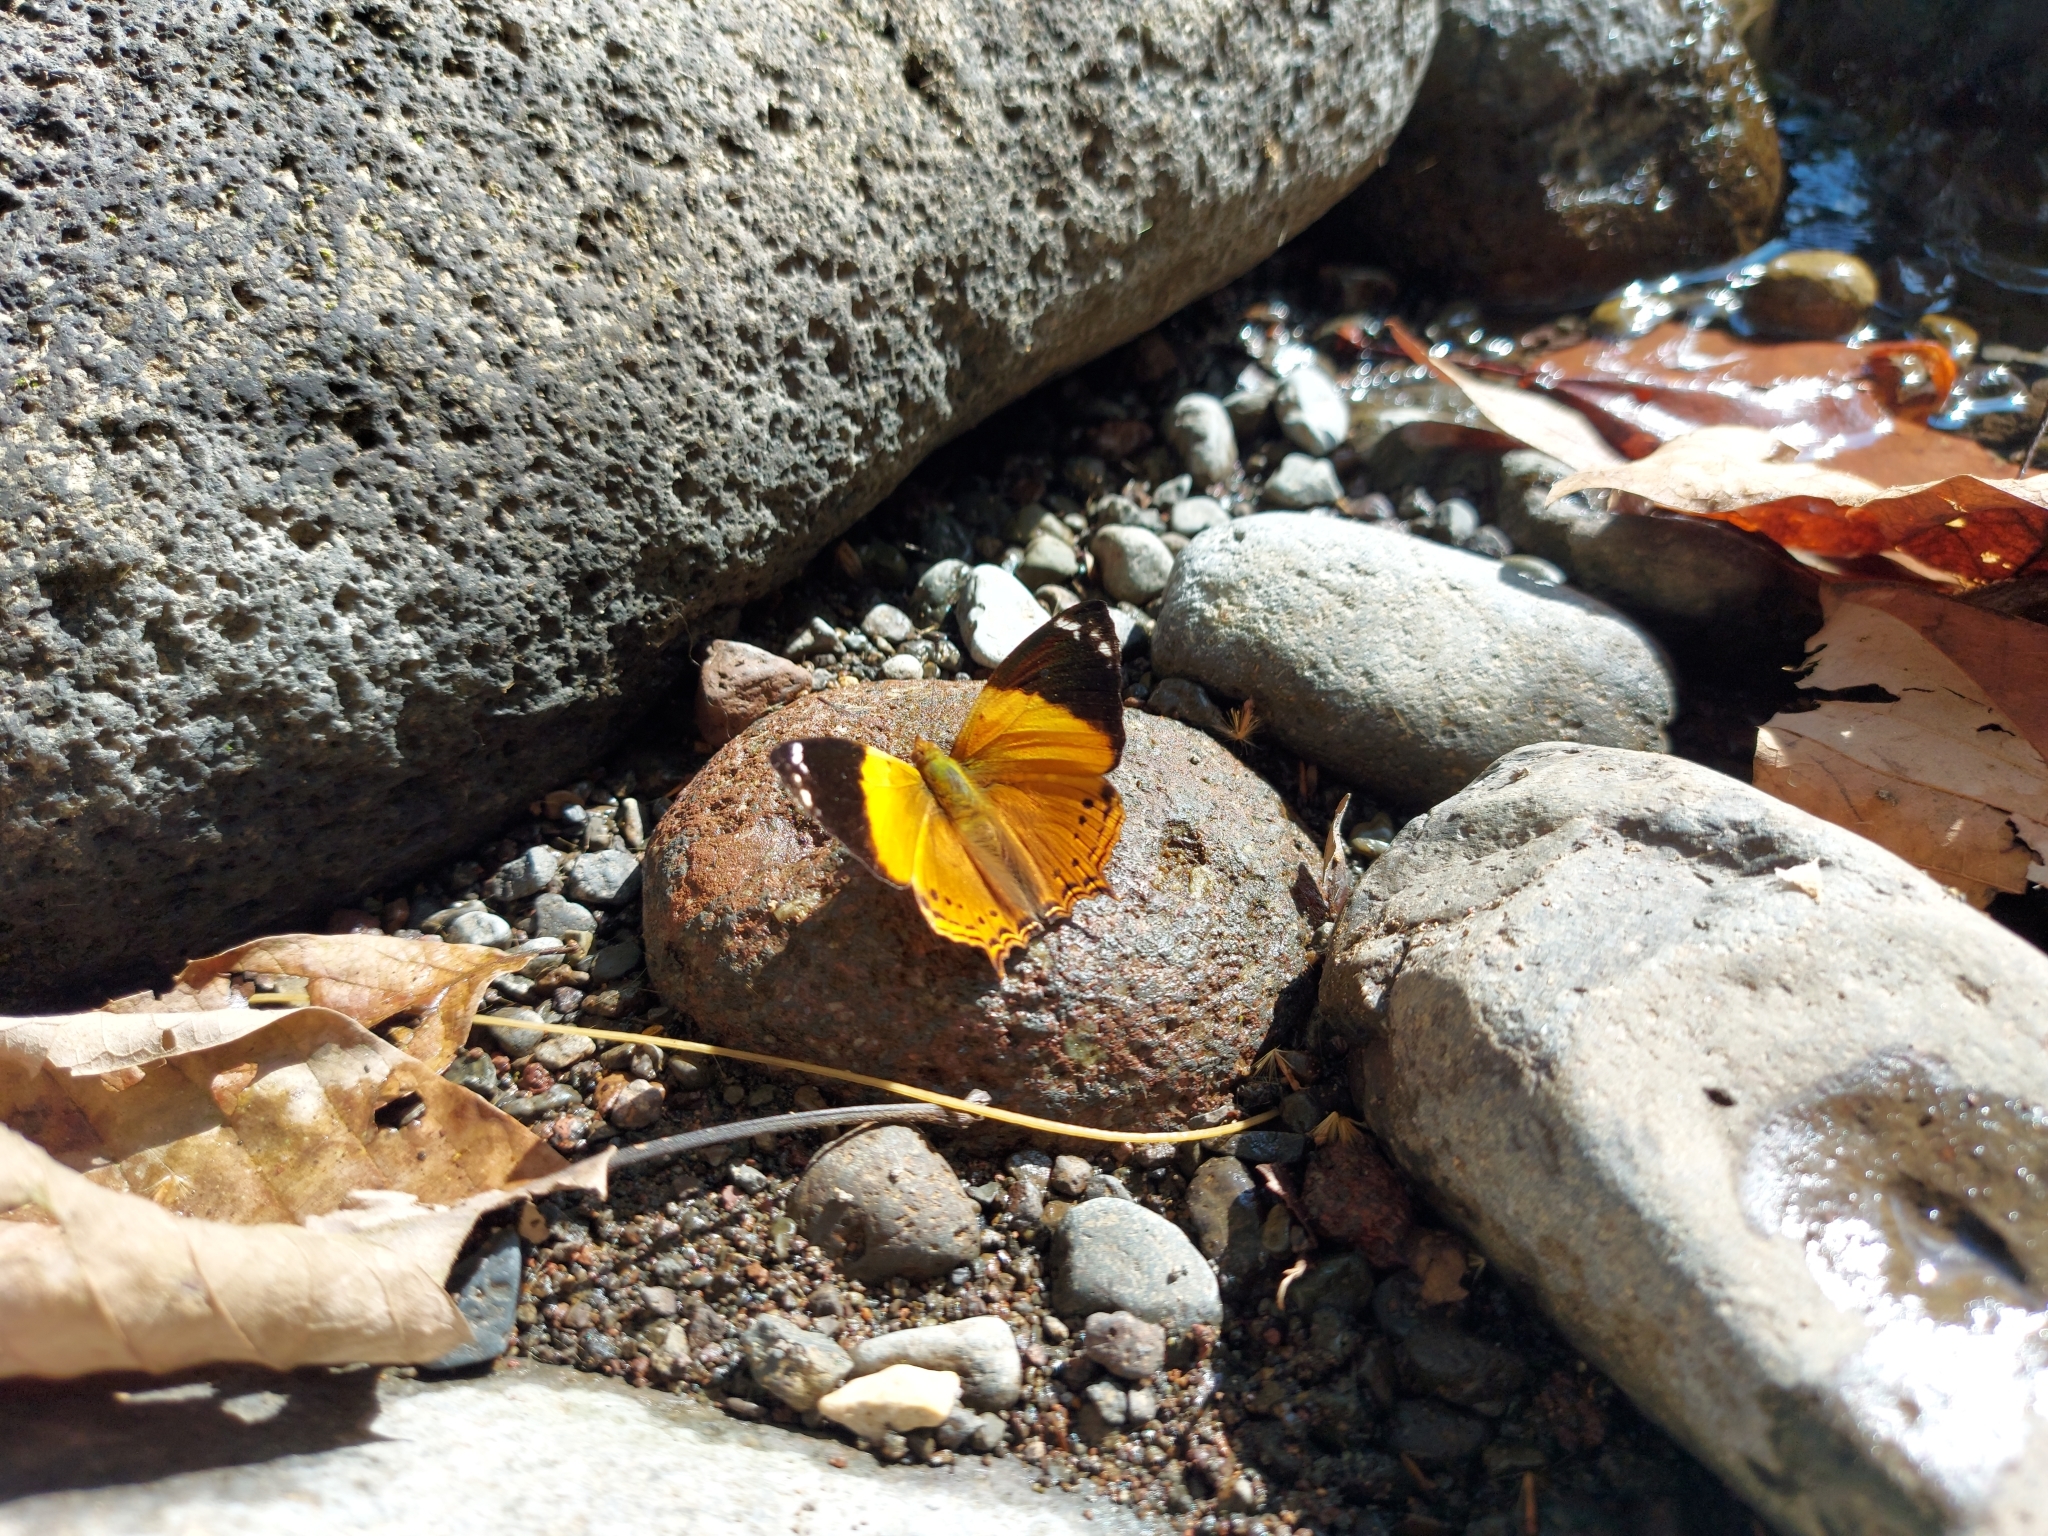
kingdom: Animalia
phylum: Arthropoda
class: Insecta
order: Lepidoptera
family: Nymphalidae
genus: Hypanartia
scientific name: Hypanartia godmanii
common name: Godman's mapwing
